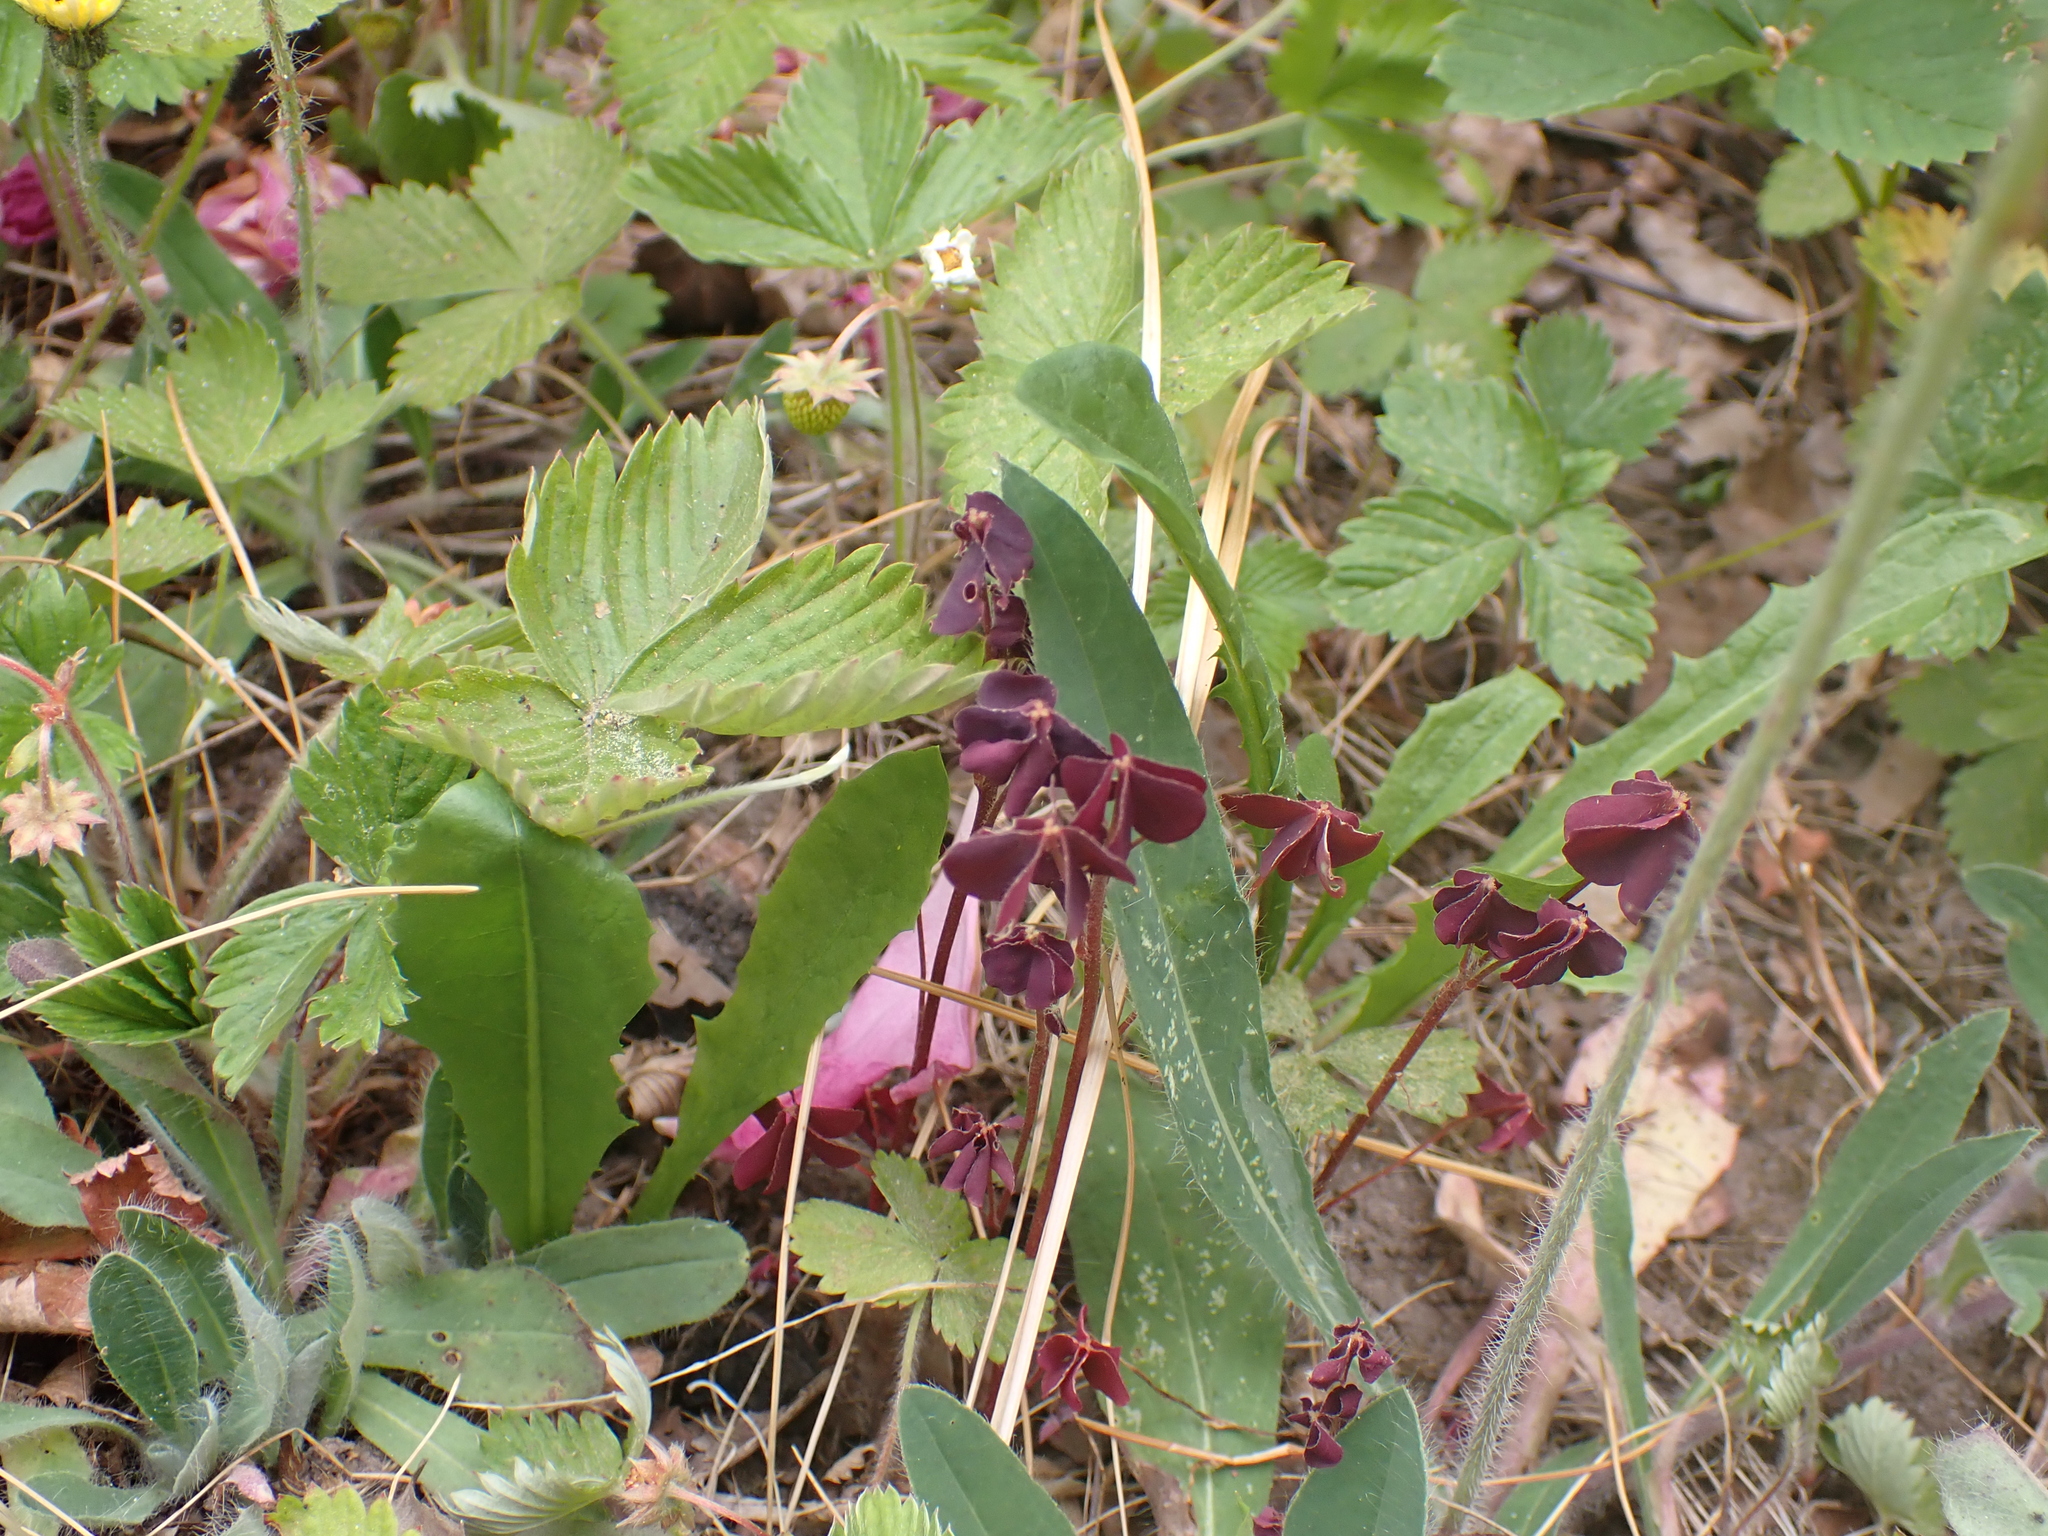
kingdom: Plantae
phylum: Tracheophyta
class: Magnoliopsida
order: Oxalidales
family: Oxalidaceae
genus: Oxalis
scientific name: Oxalis stricta
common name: Upright yellow-sorrel
